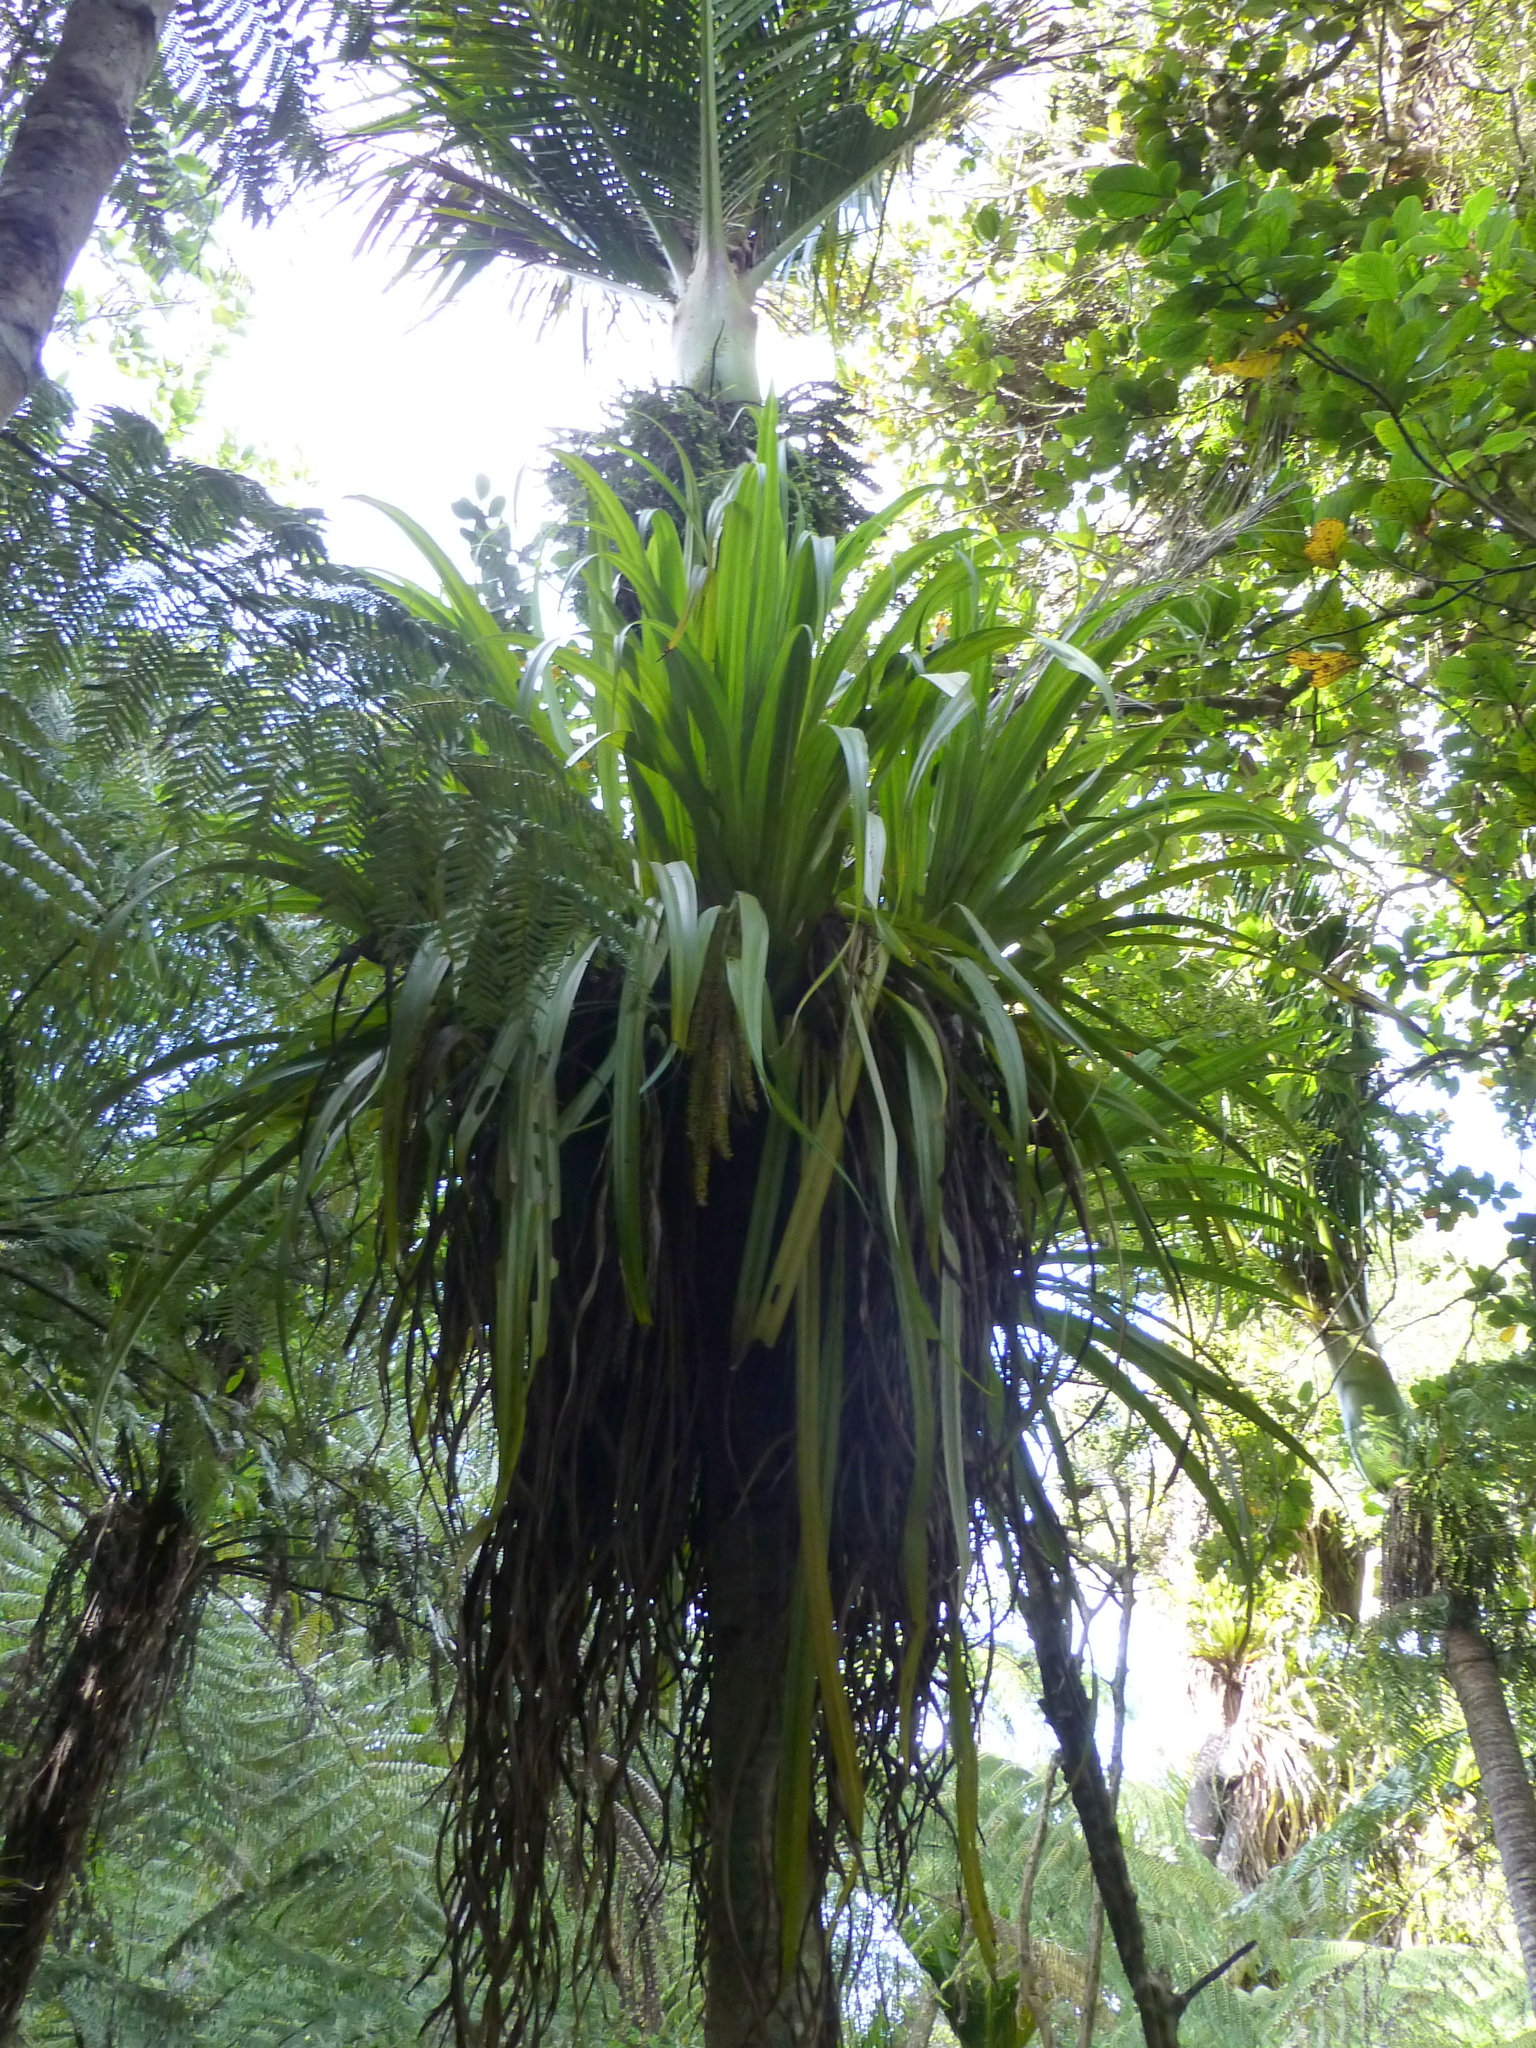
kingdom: Plantae
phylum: Tracheophyta
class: Liliopsida
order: Asparagales
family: Asteliaceae
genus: Astelia
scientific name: Astelia hastata
